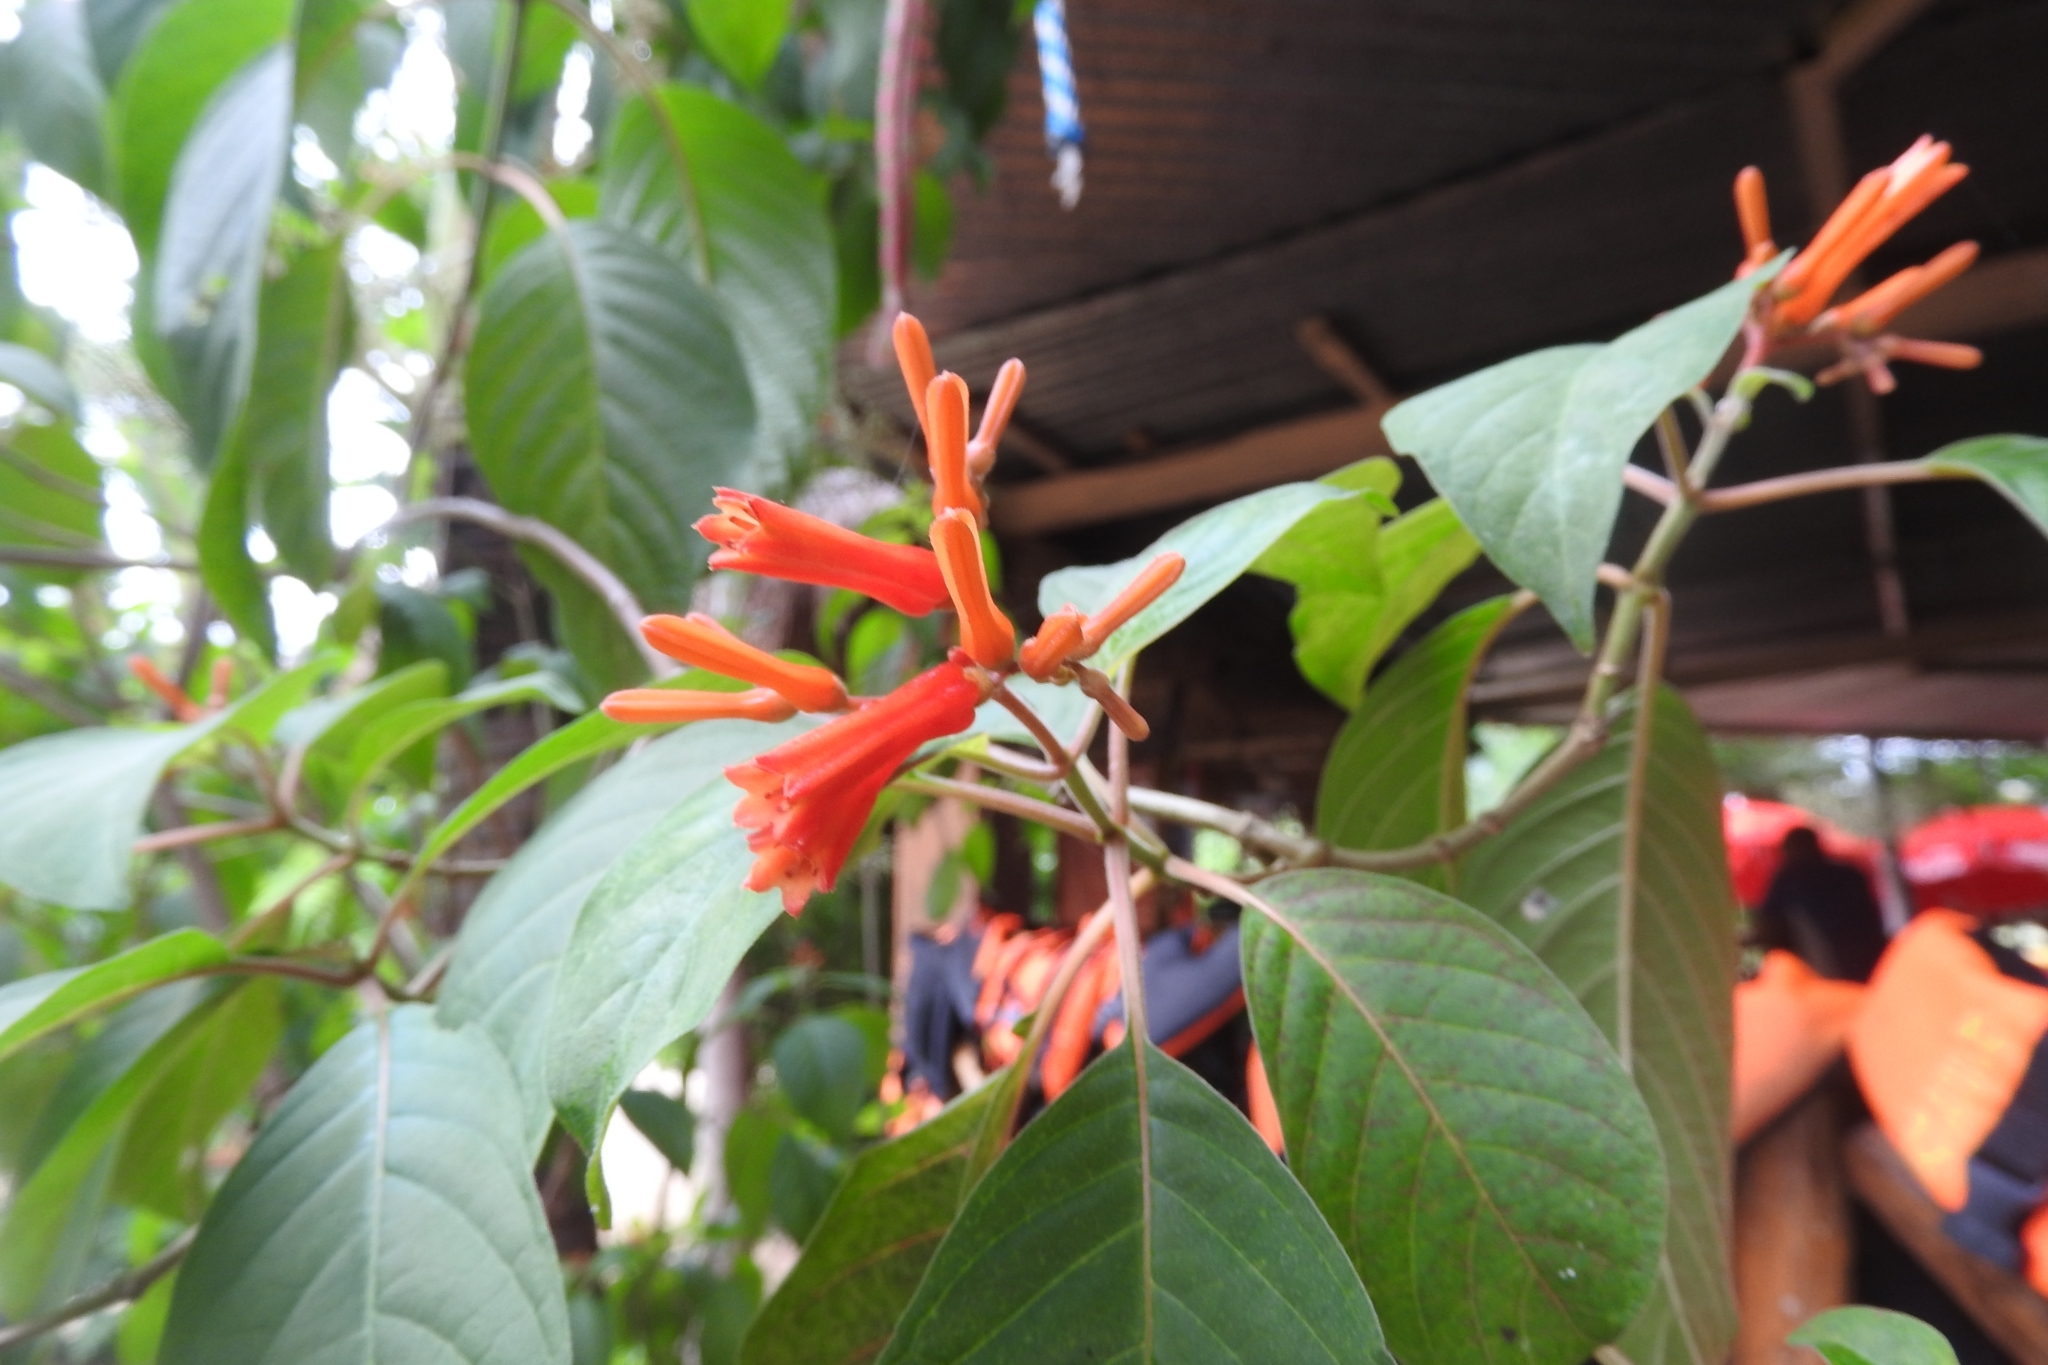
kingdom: Plantae
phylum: Tracheophyta
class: Magnoliopsida
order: Gentianales
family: Rubiaceae
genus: Hamelia
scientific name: Hamelia patens
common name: Redhead
